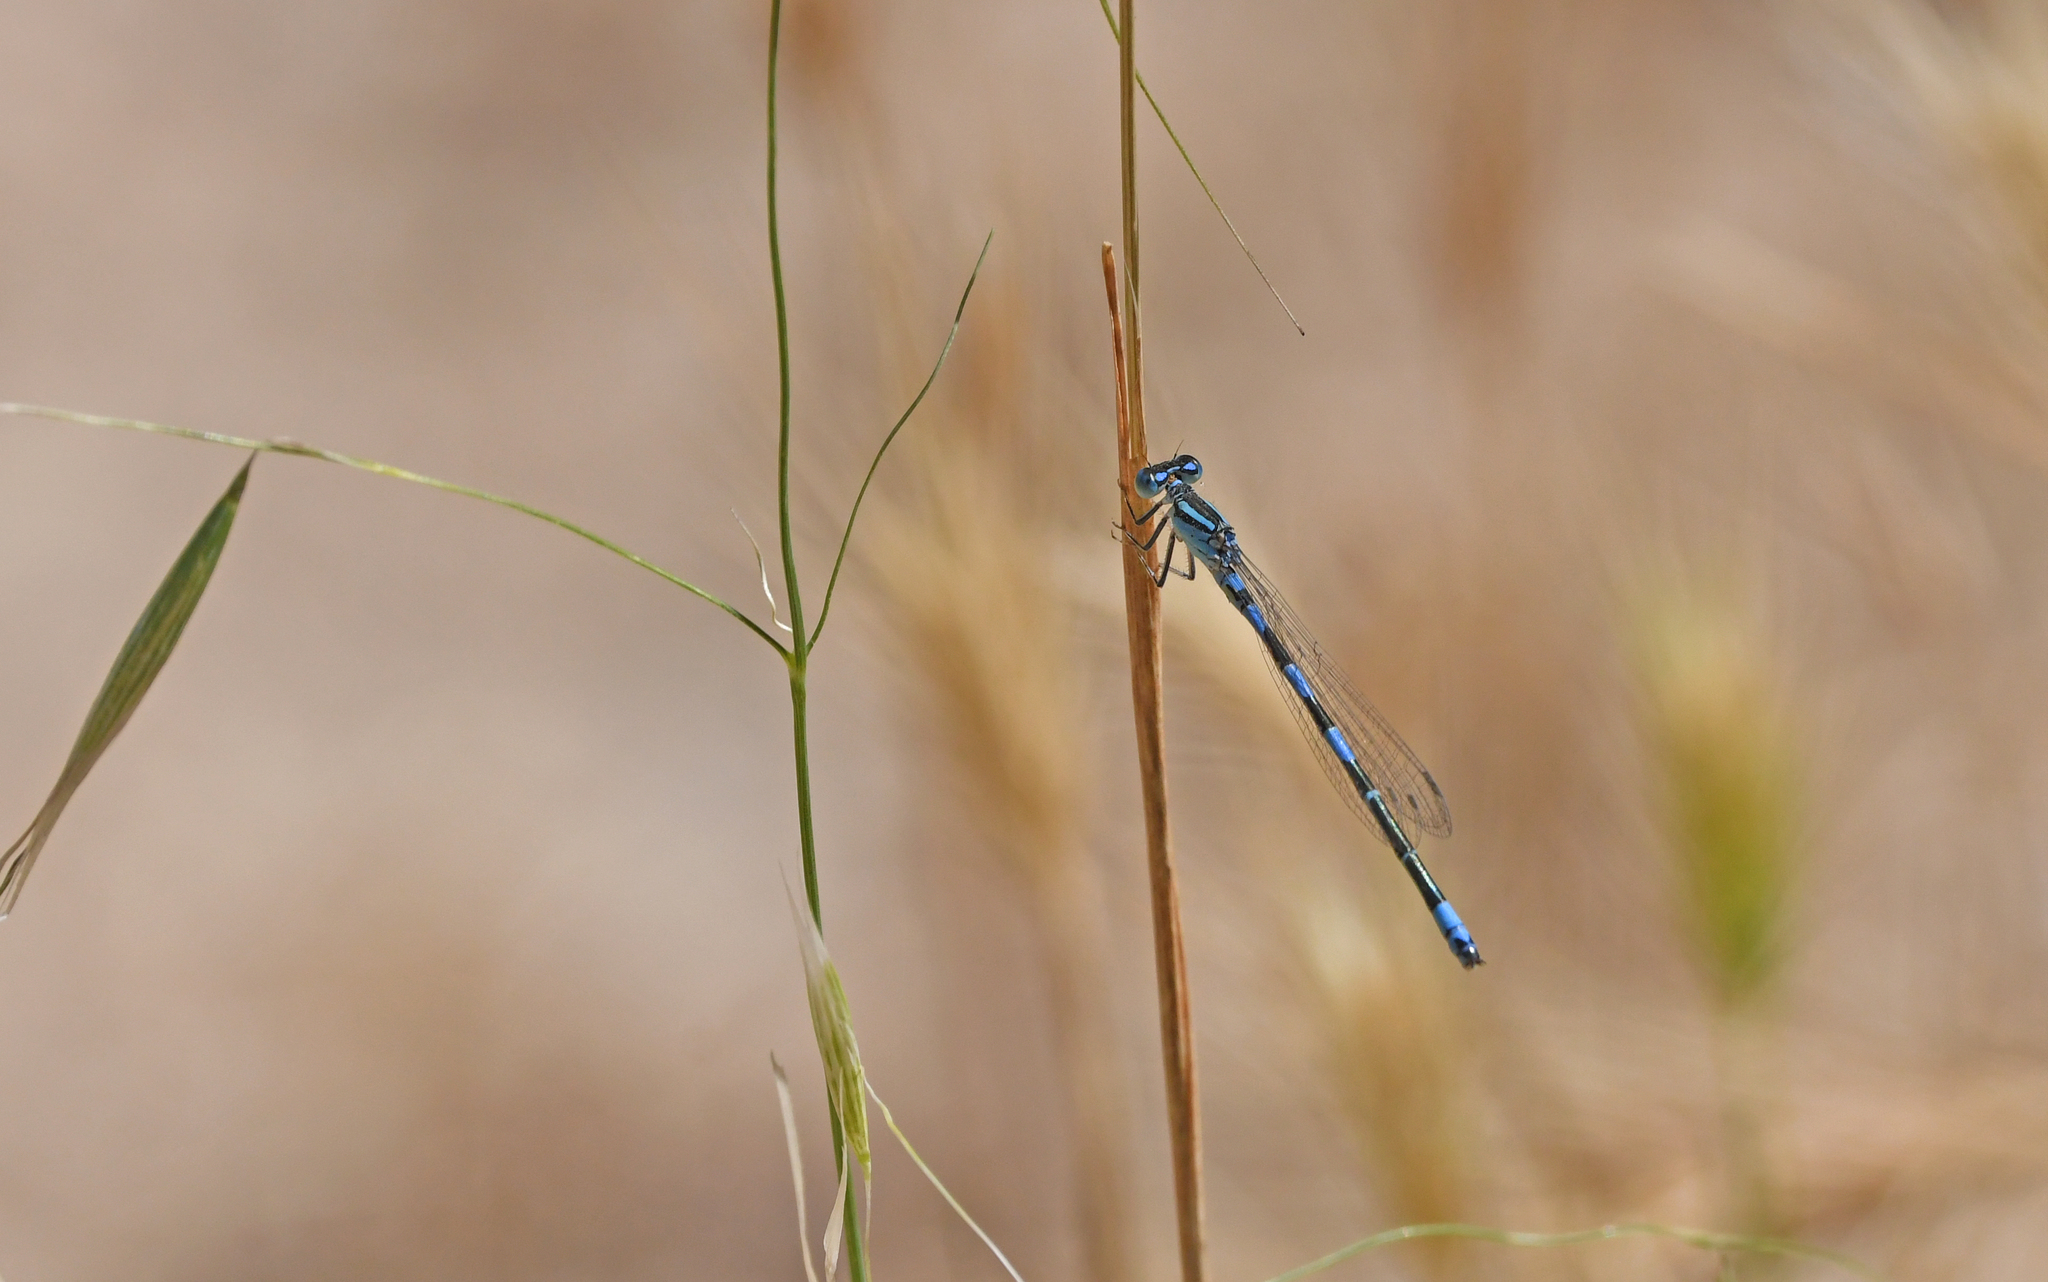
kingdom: Animalia
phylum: Arthropoda
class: Insecta
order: Odonata
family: Coenagrionidae
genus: Coenagrion
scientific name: Coenagrion caerulescens
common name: Mediterranean bluet
